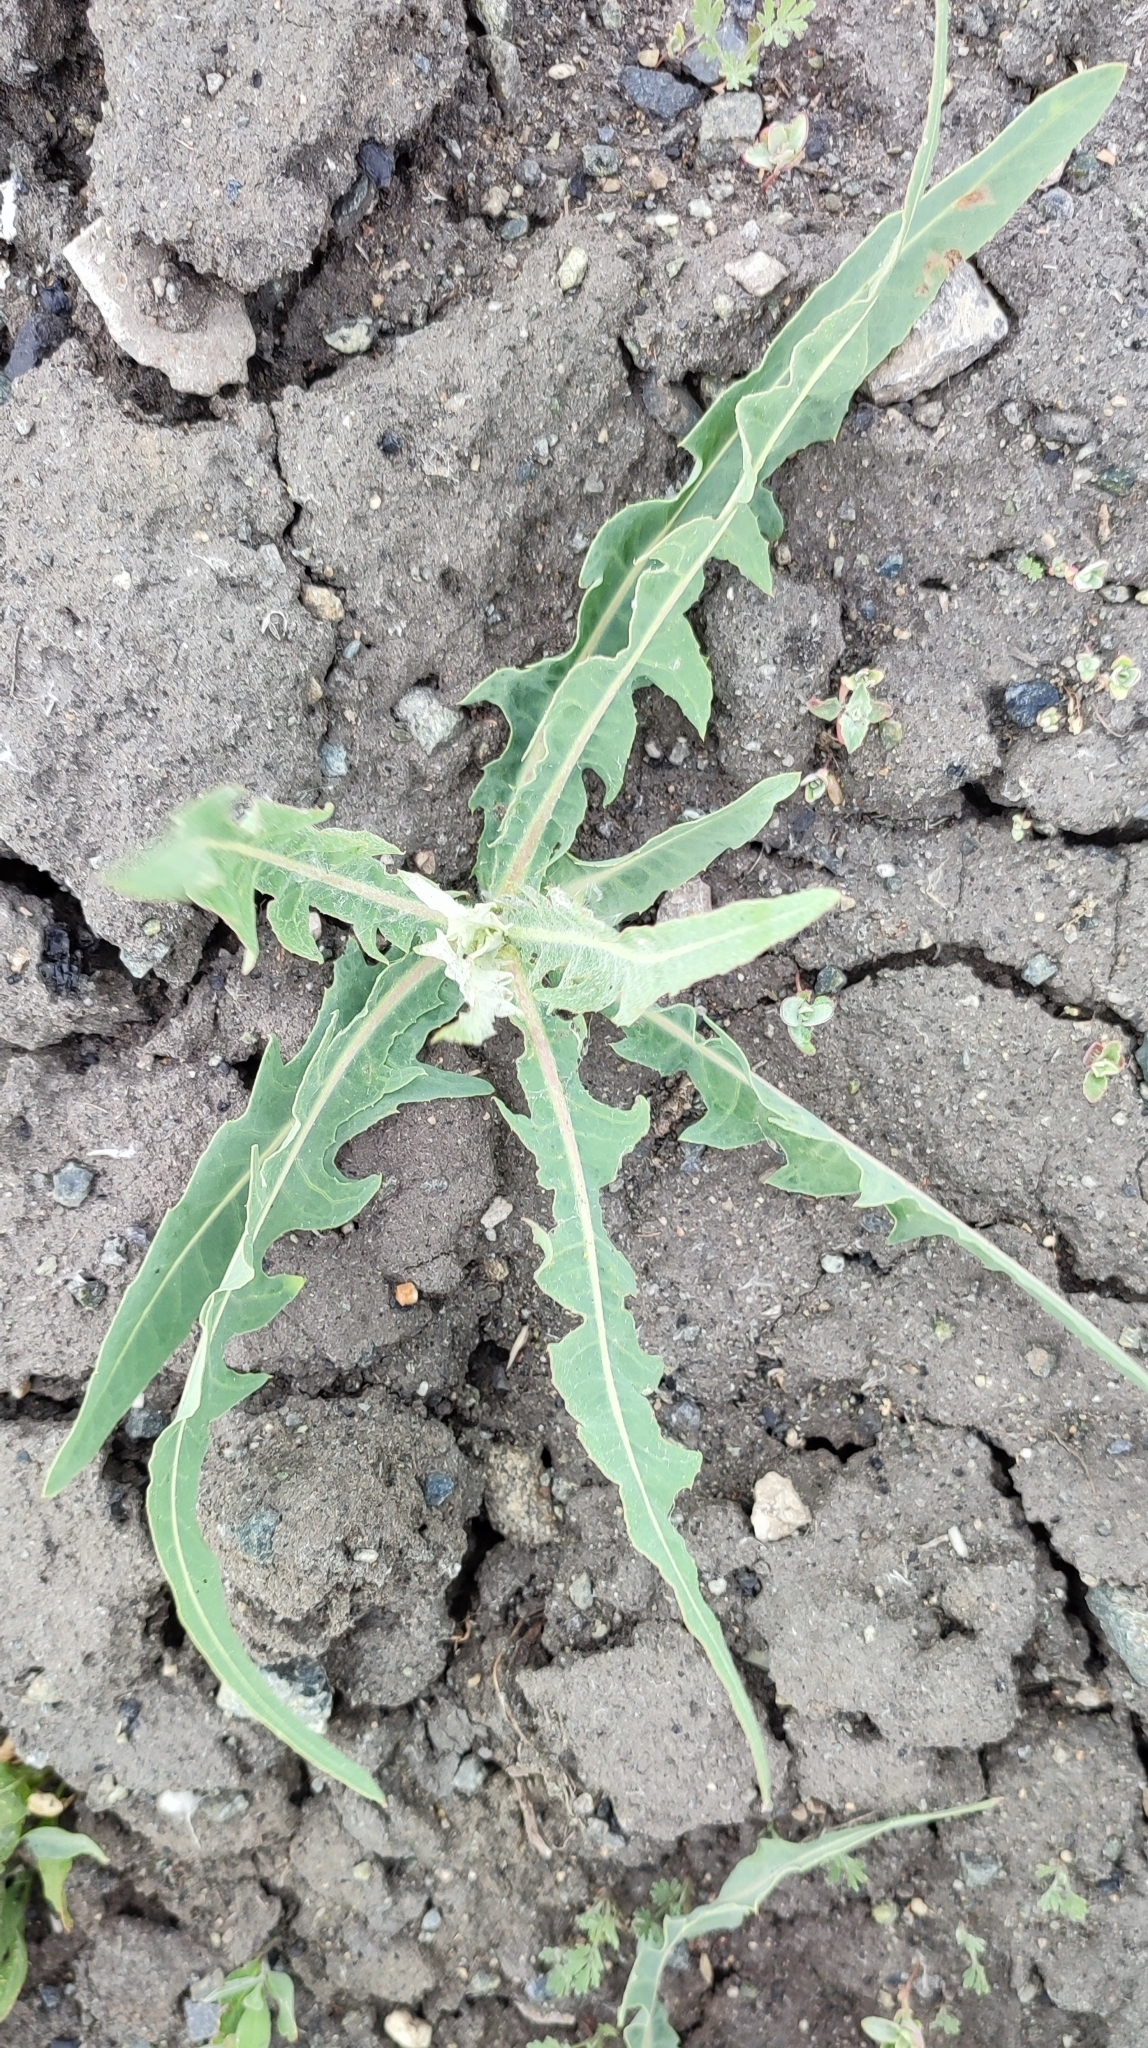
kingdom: Plantae
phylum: Tracheophyta
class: Magnoliopsida
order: Asterales
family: Asteraceae
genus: Lactuca
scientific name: Lactuca tatarica
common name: Blue lettuce
